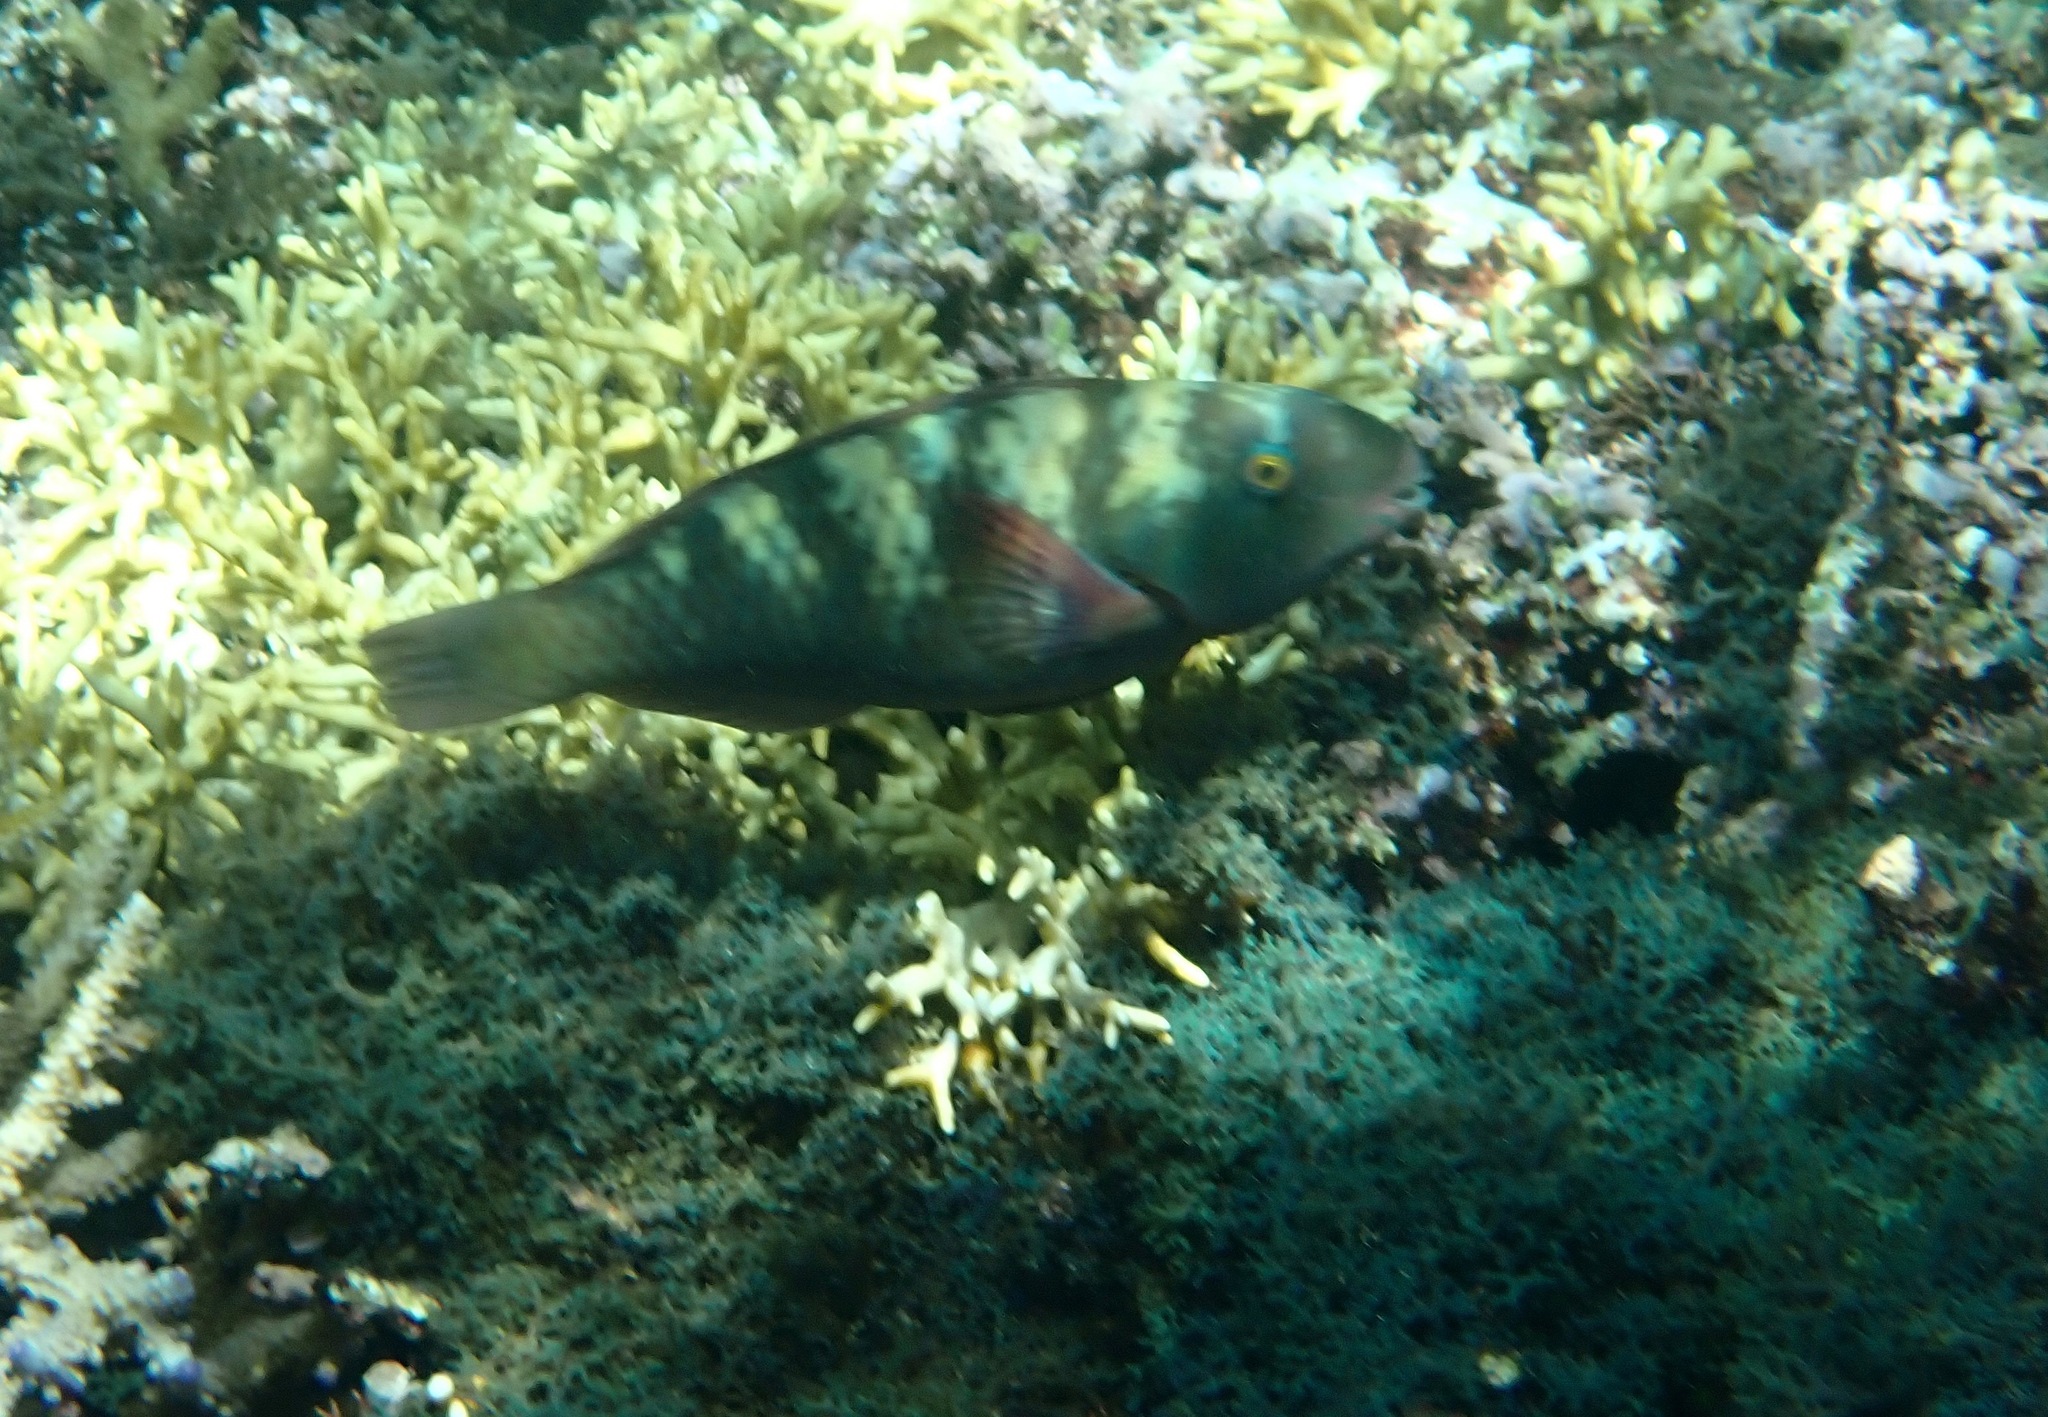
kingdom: Animalia
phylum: Chordata
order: Perciformes
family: Scaridae
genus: Chlorurus
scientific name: Chlorurus bleekeri
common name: Bleeker's parrotfish
